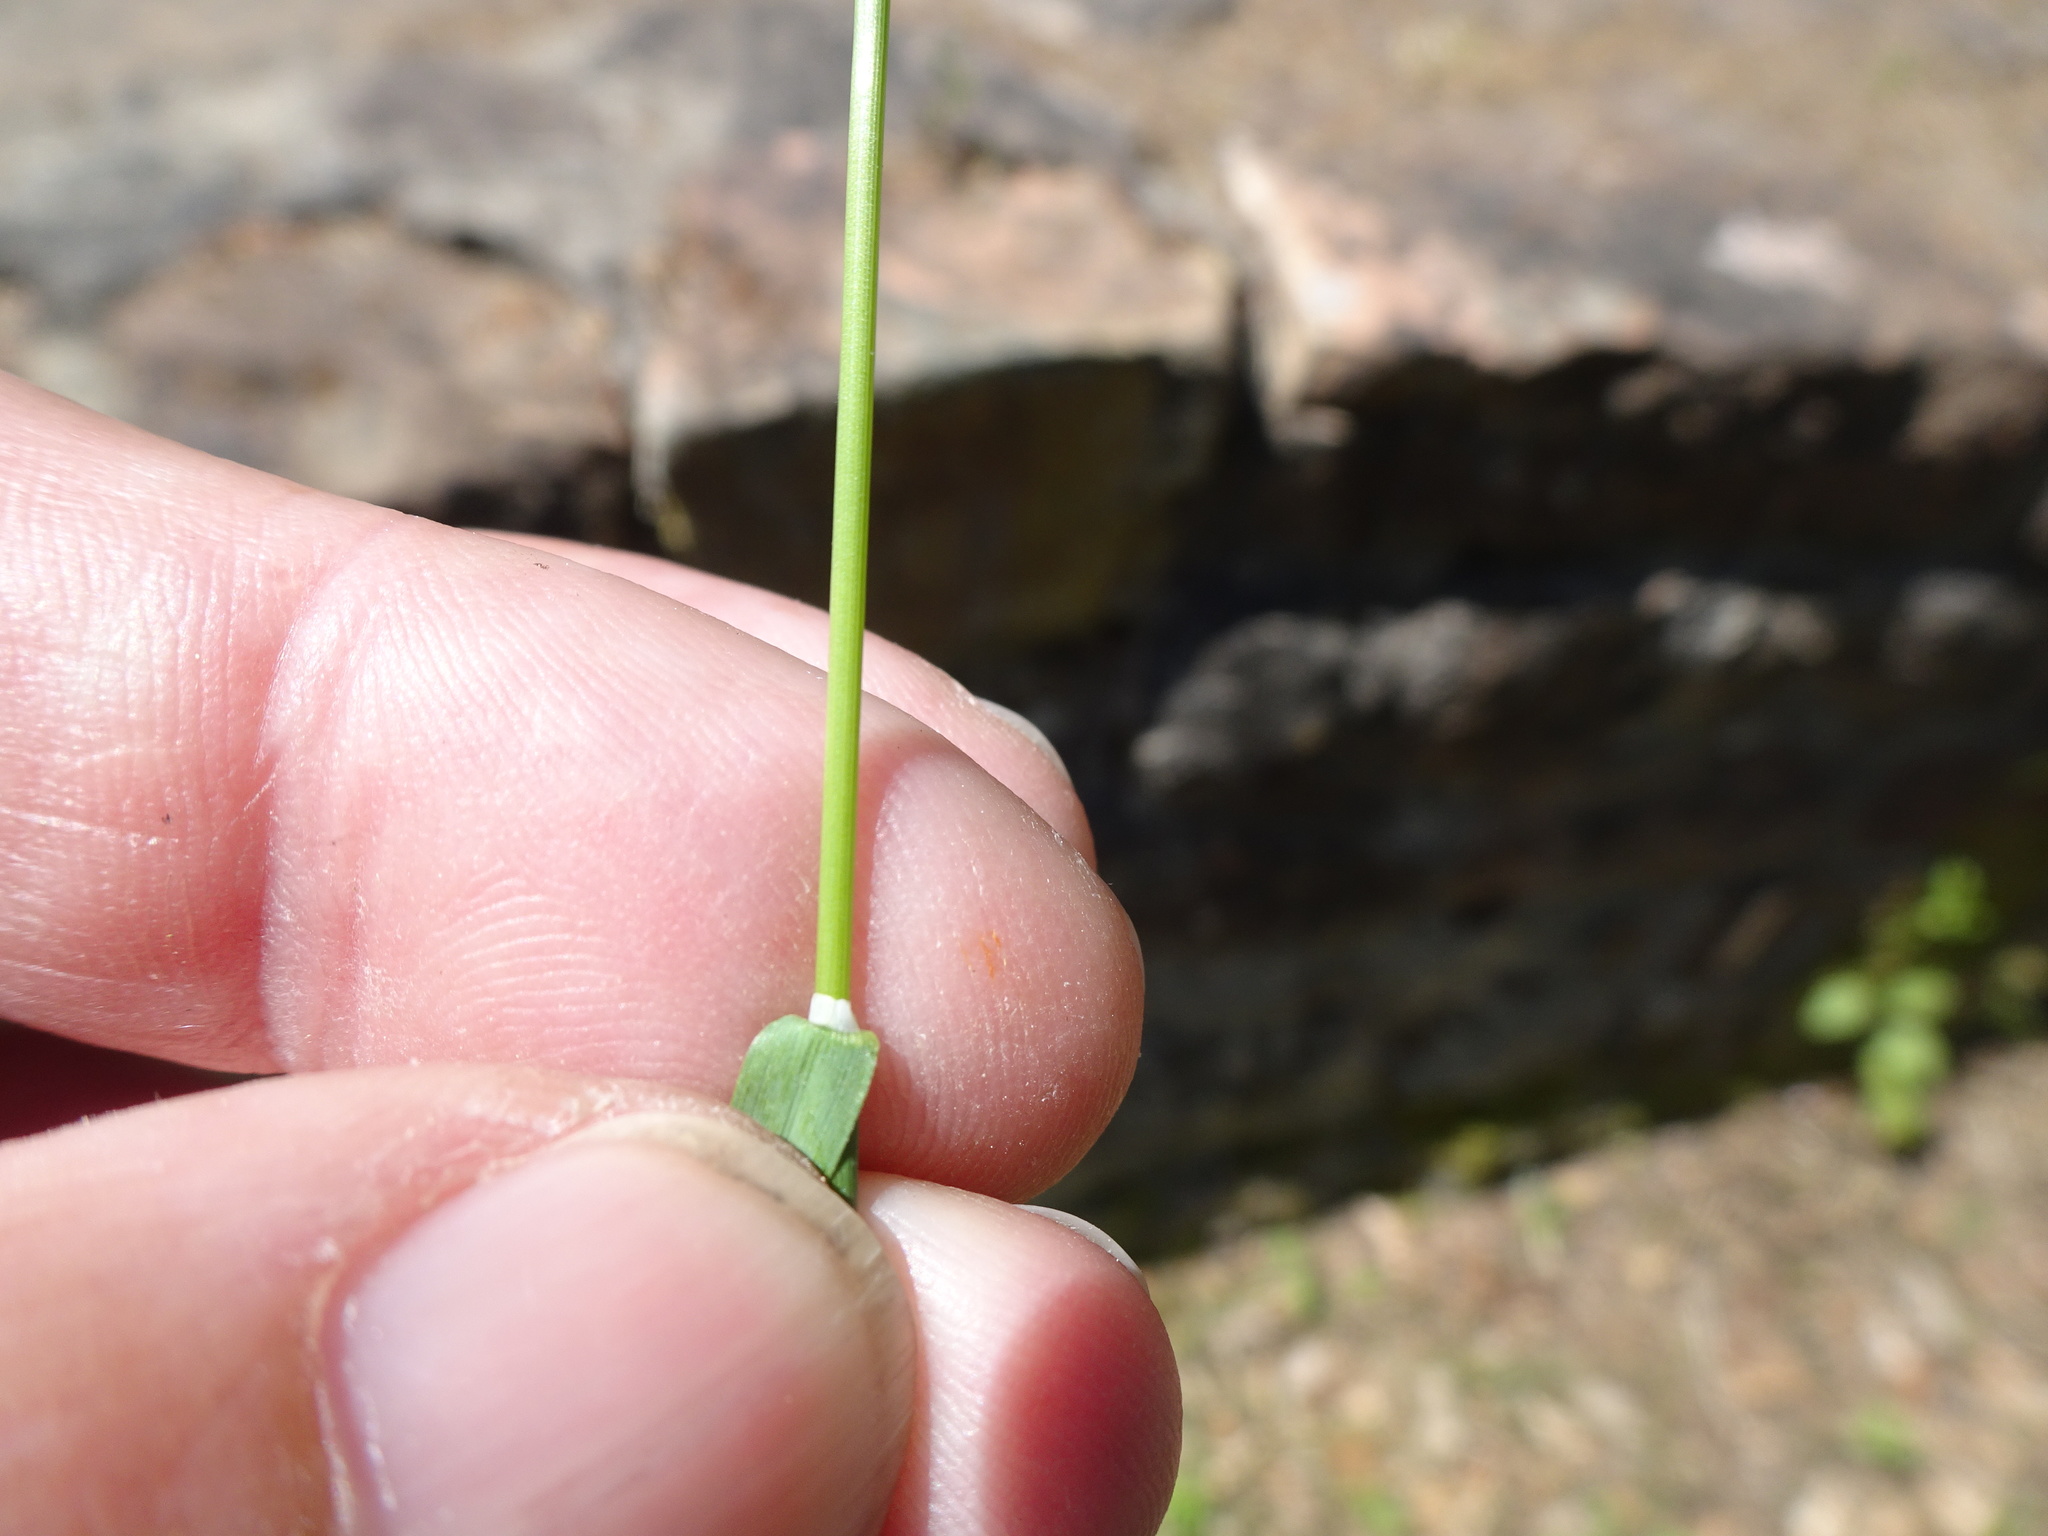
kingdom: Plantae
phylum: Tracheophyta
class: Liliopsida
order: Poales
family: Poaceae
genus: Poa
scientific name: Poa pratensis
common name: Kentucky bluegrass
